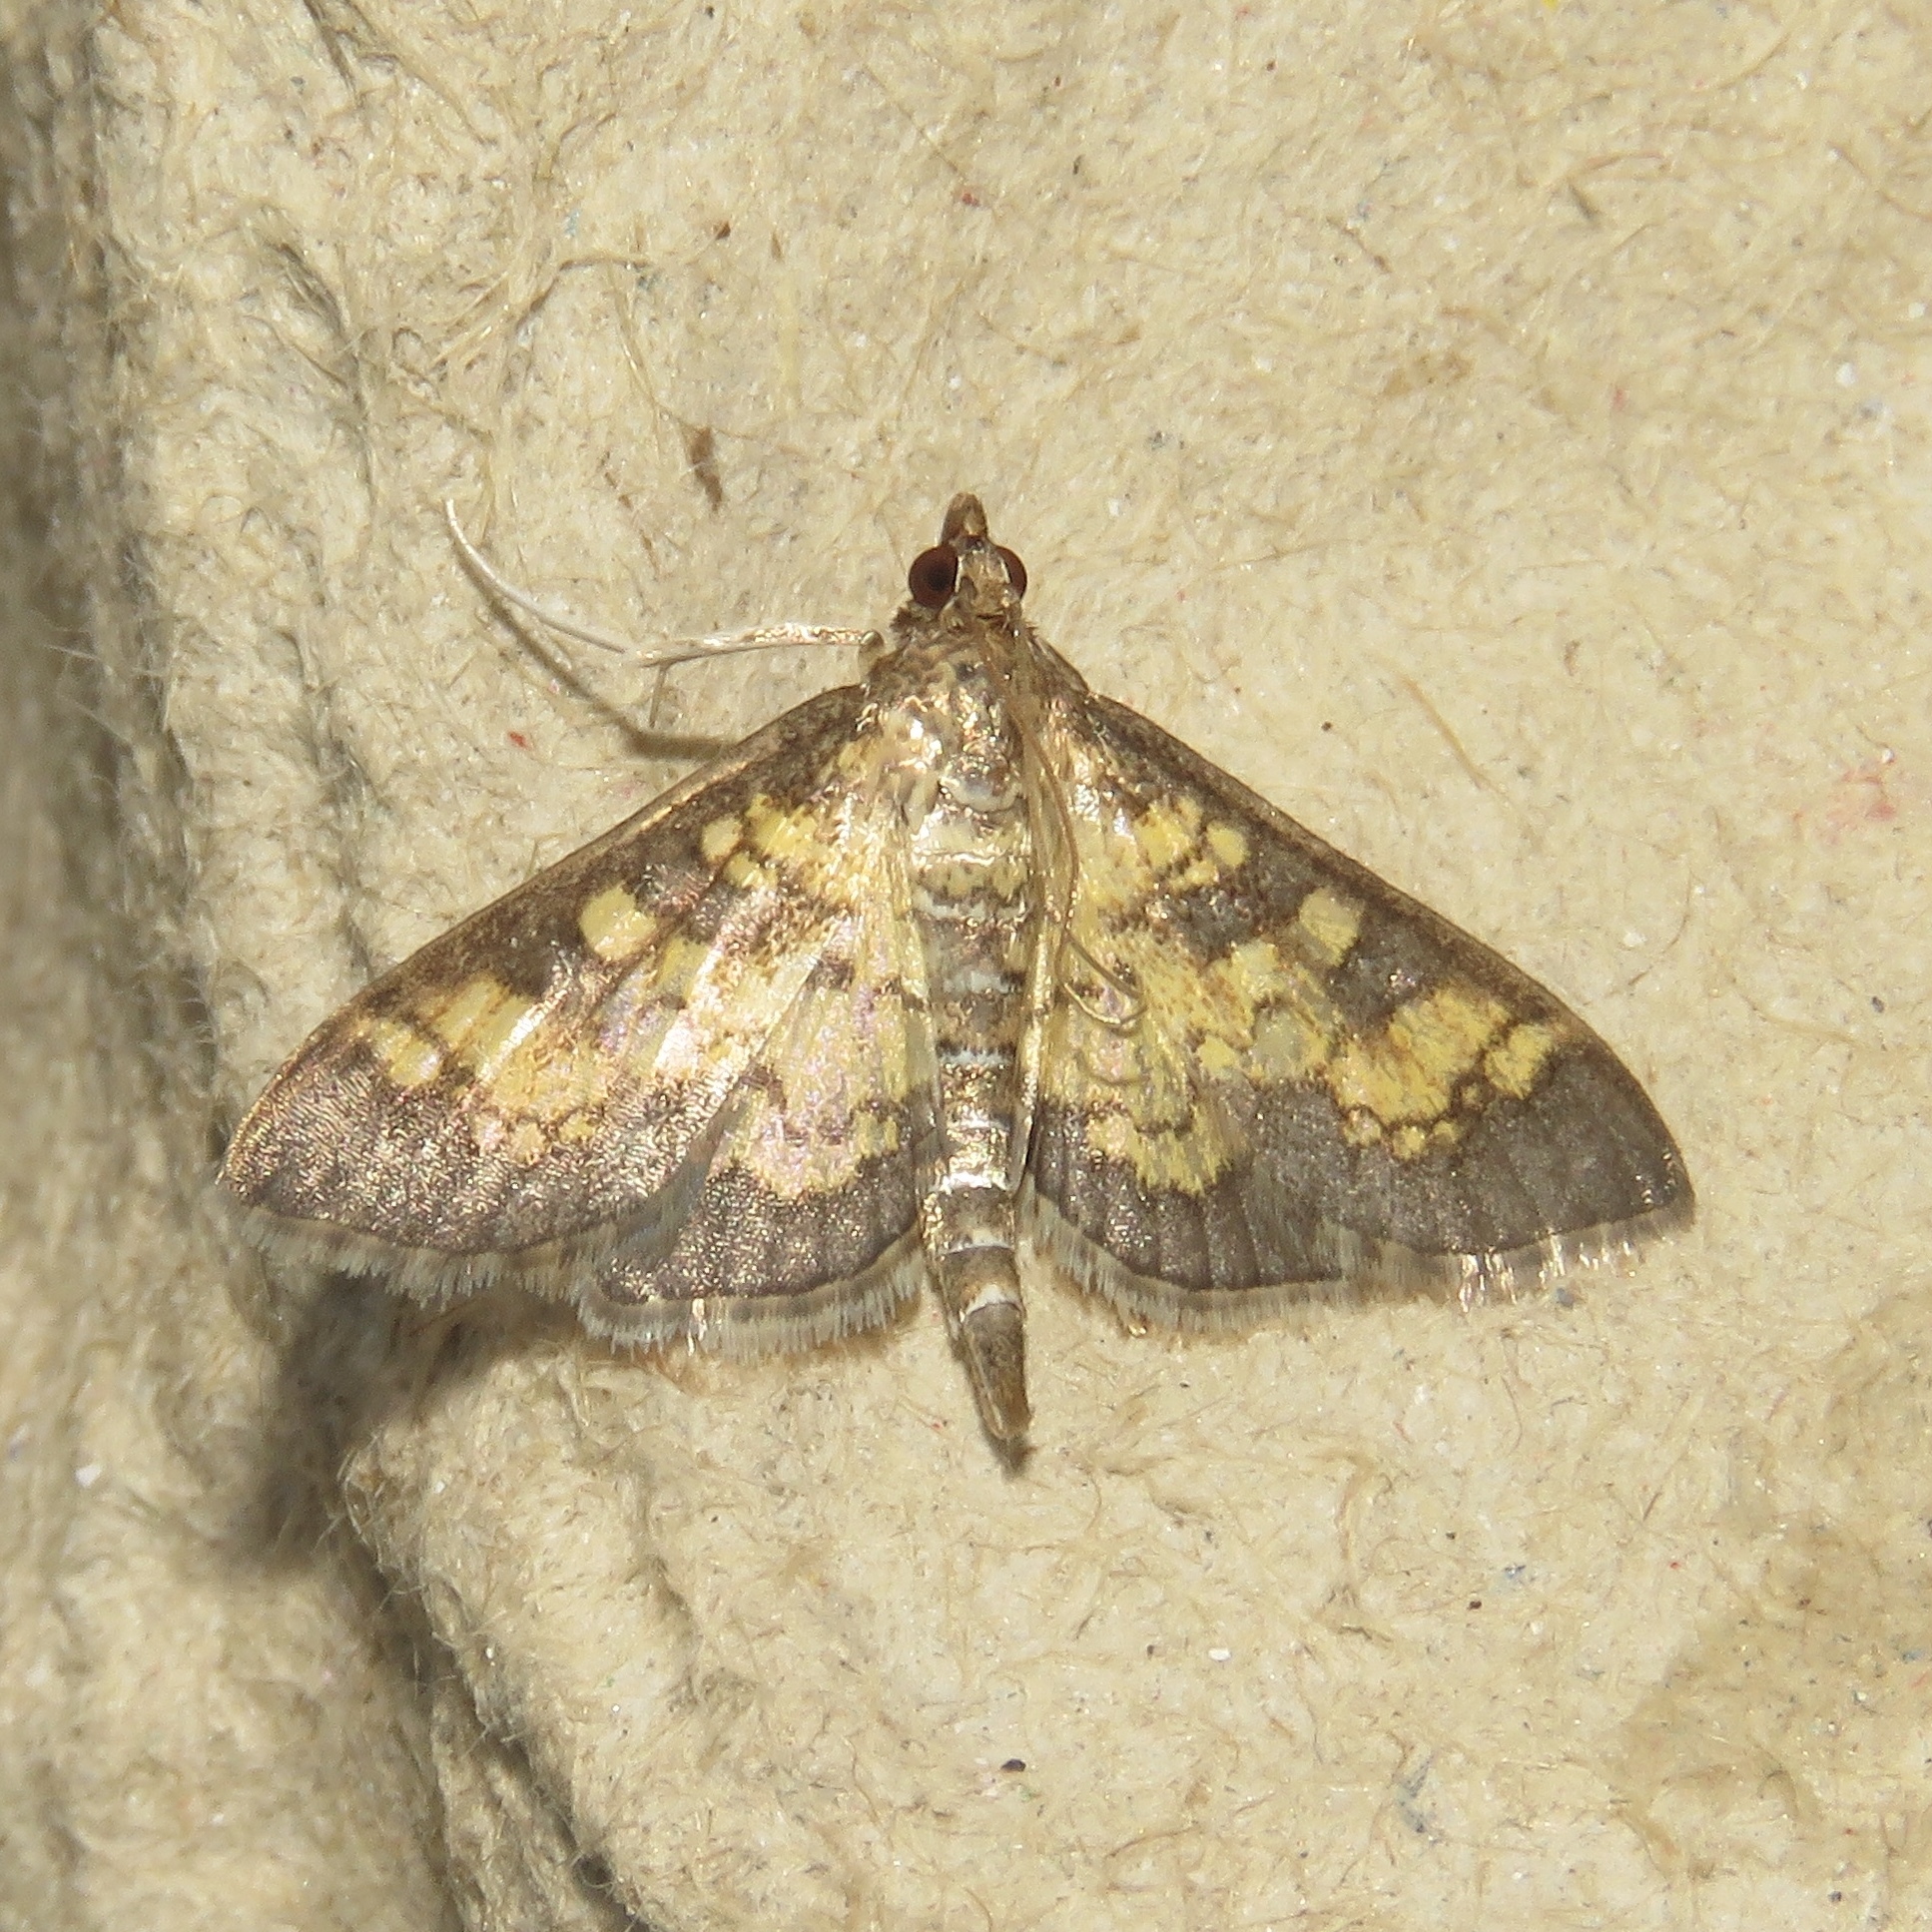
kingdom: Animalia
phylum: Arthropoda
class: Insecta
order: Lepidoptera
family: Crambidae
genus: Epipagis
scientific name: Epipagis adipaloides
